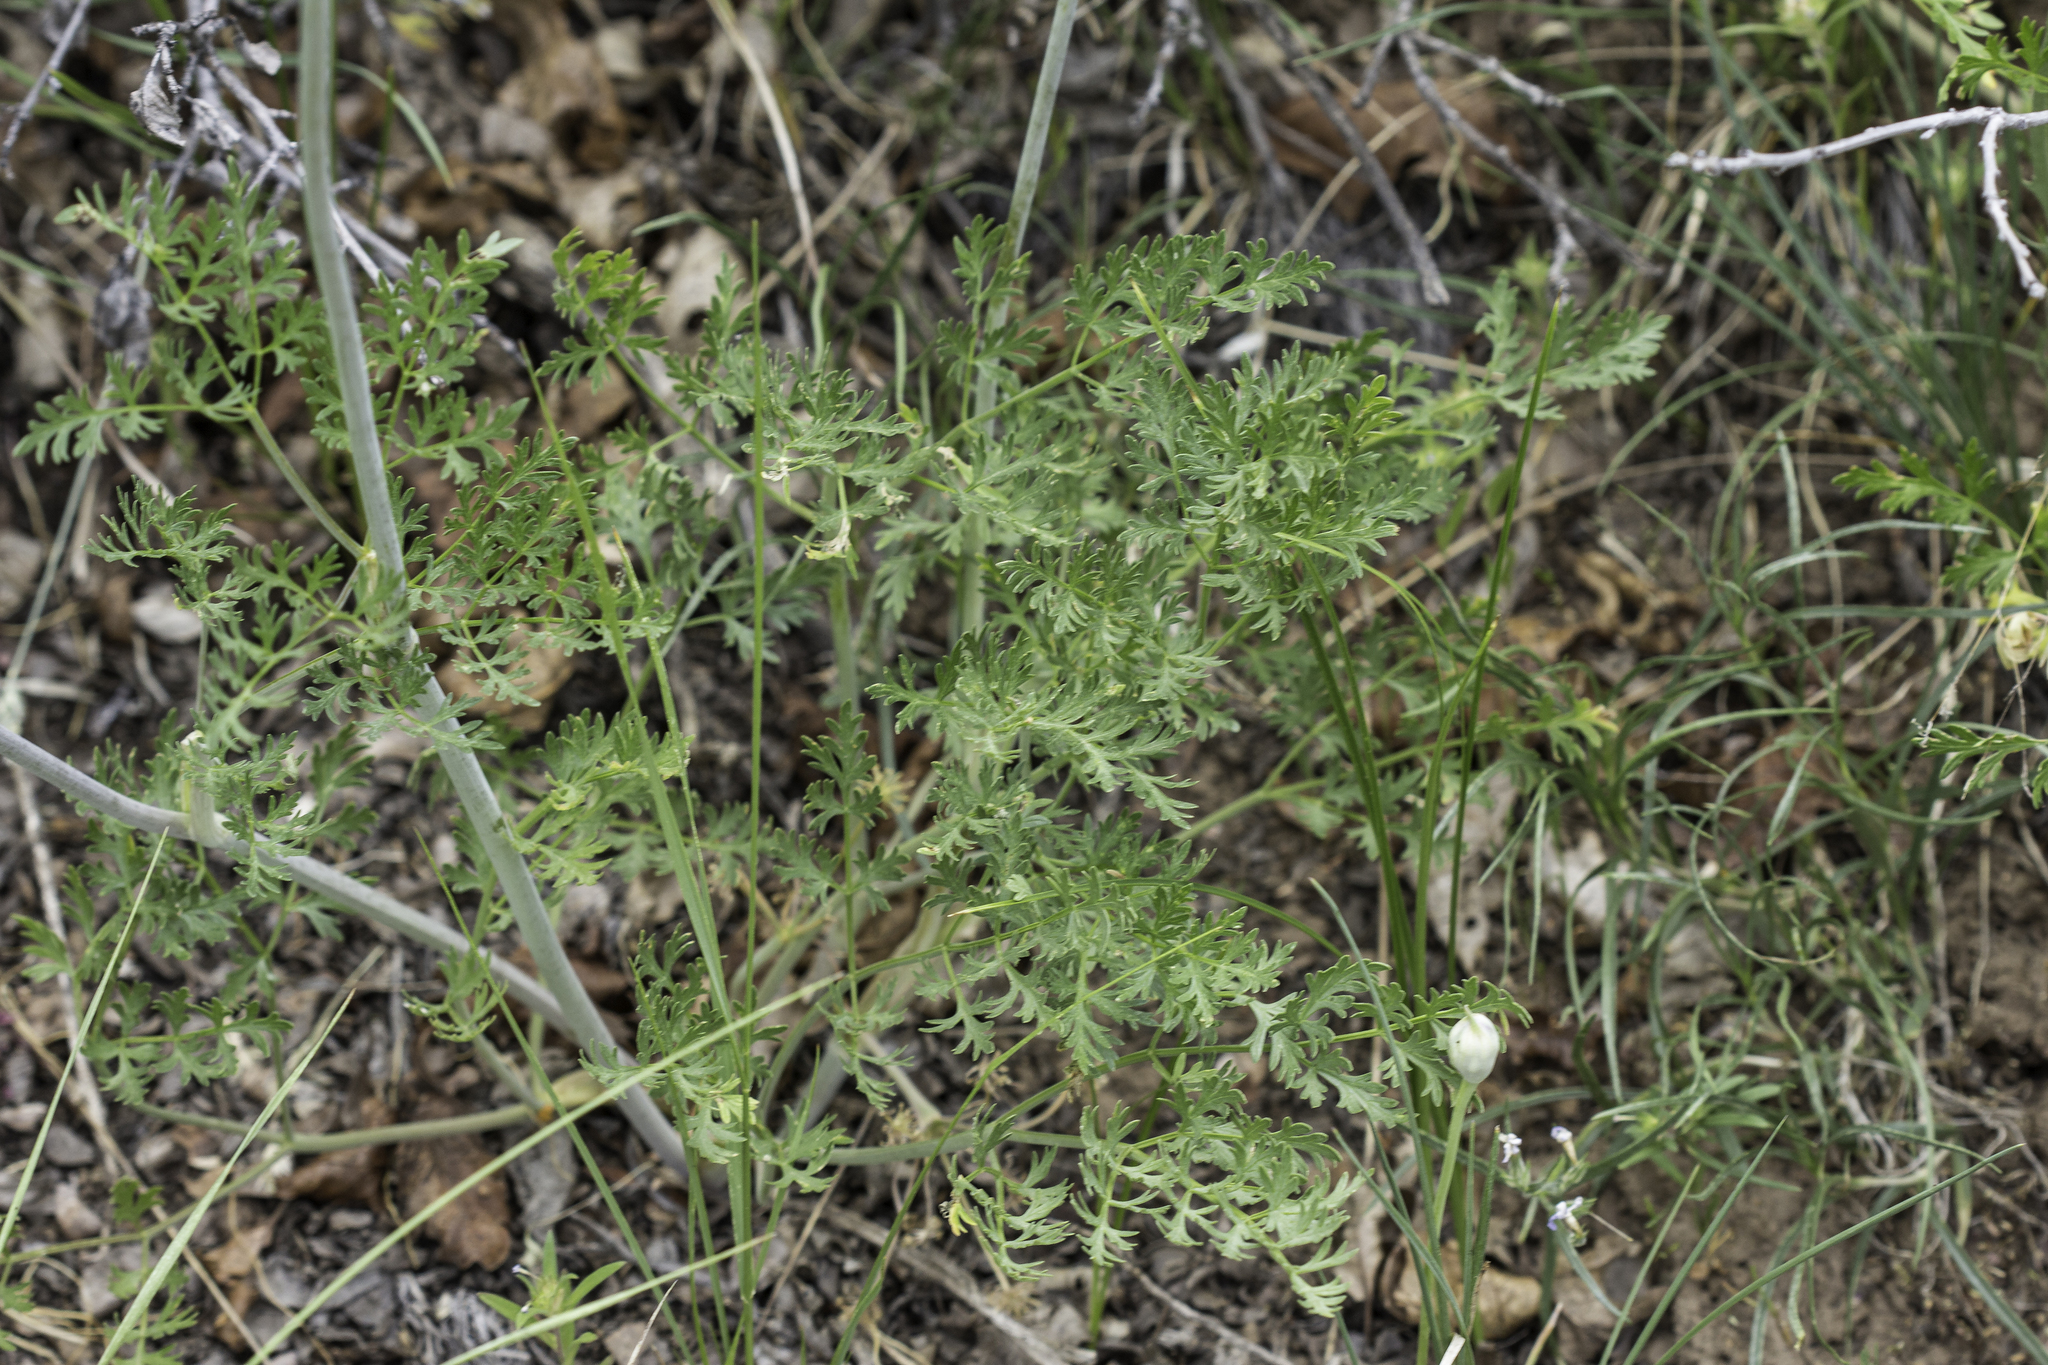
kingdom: Plantae
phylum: Tracheophyta
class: Magnoliopsida
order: Apiales
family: Apiaceae
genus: Lomatium
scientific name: Lomatium multifidum
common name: Carrot-leaved biscuitroot
